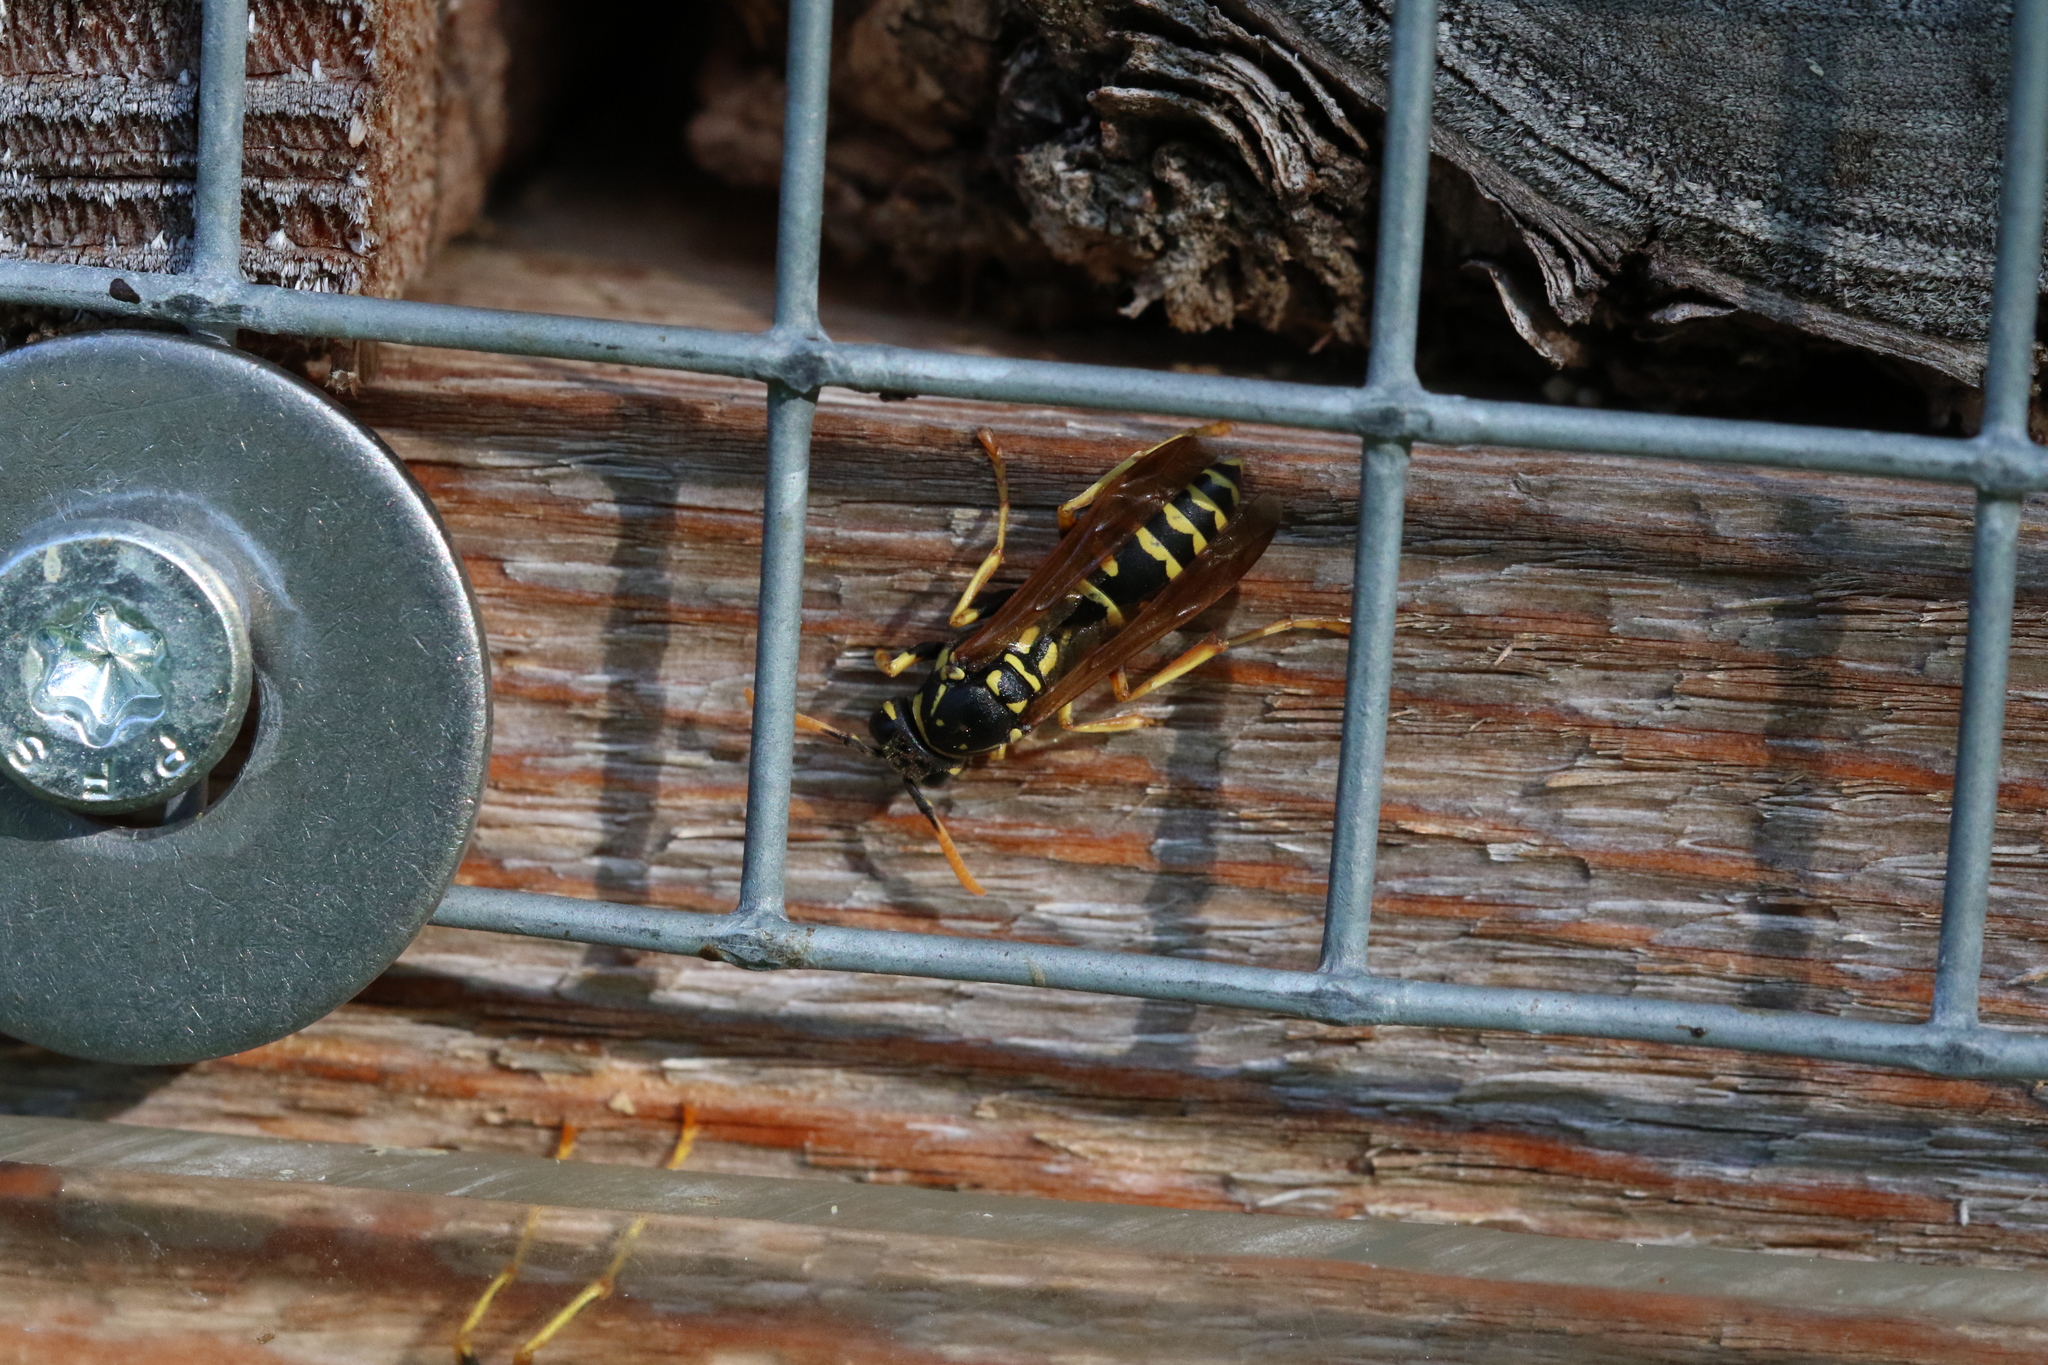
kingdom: Animalia
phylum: Arthropoda
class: Insecta
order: Hymenoptera
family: Eumenidae
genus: Polistes
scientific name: Polistes dominula
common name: Paper wasp
